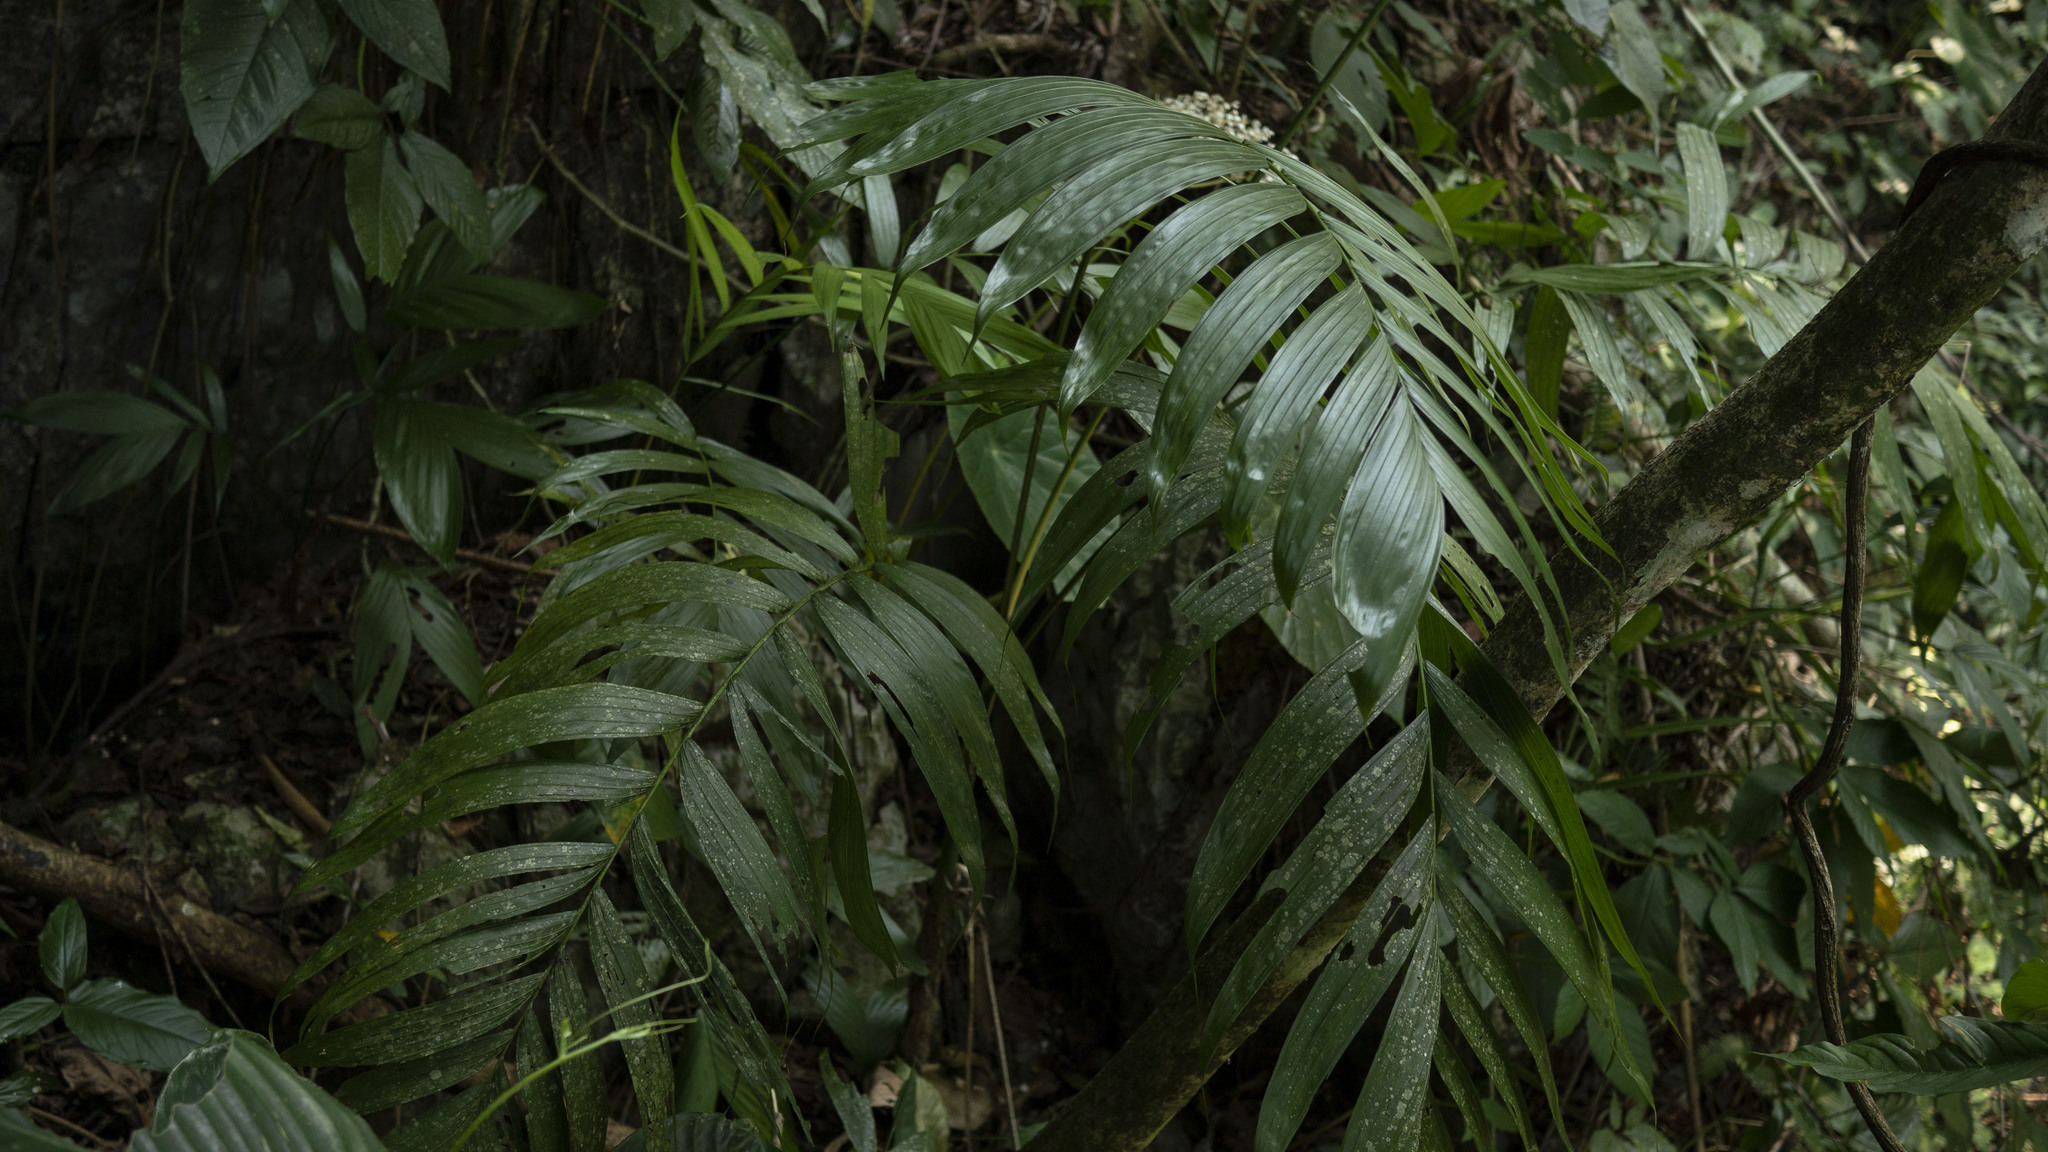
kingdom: Plantae
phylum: Tracheophyta
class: Liliopsida
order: Arecales
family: Arecaceae
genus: Chamaedorea
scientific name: Chamaedorea tepejilote
